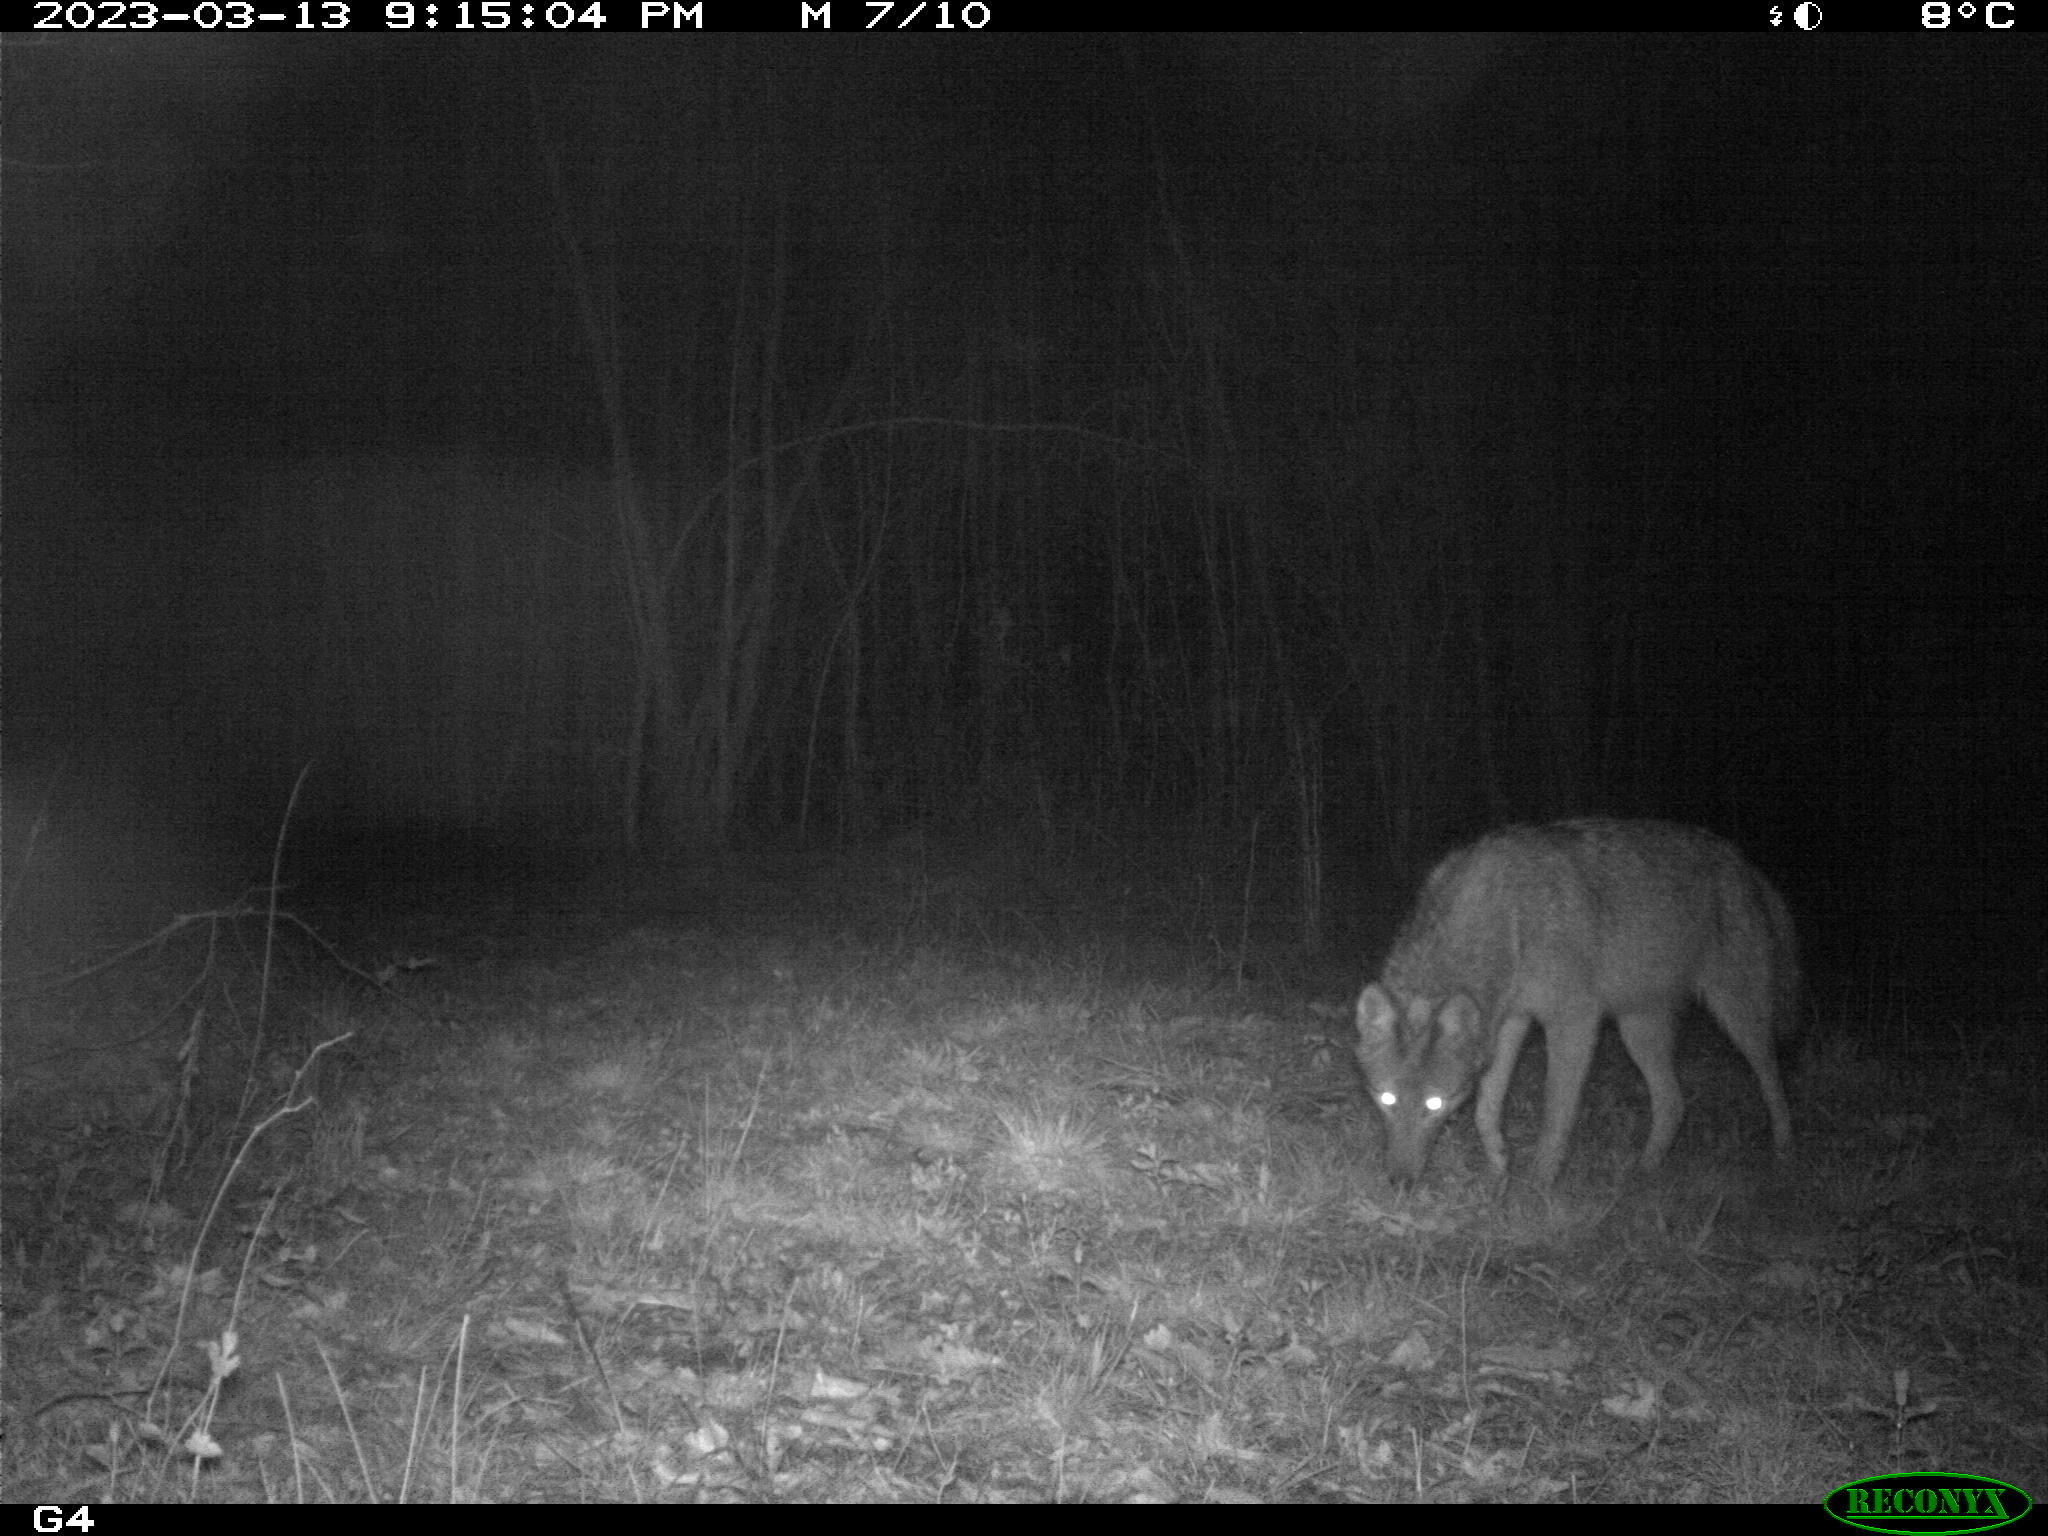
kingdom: Animalia
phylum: Chordata
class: Mammalia
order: Carnivora
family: Canidae
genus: Canis
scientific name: Canis latrans
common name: Coyote
